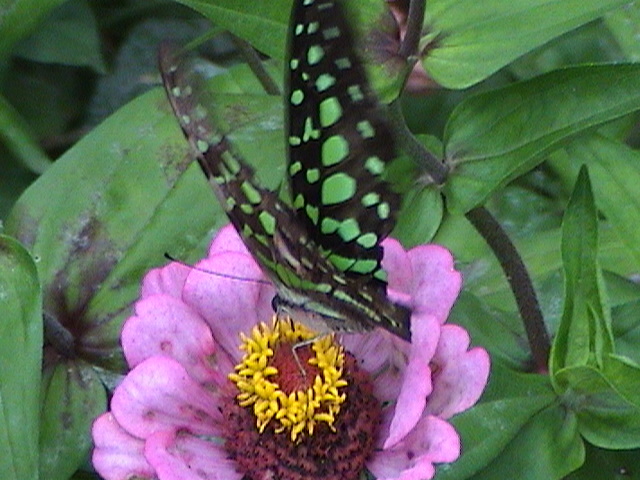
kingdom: Animalia
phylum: Arthropoda
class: Insecta
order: Lepidoptera
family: Papilionidae
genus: Graphium
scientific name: Graphium agamemnon
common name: Tailed jay
